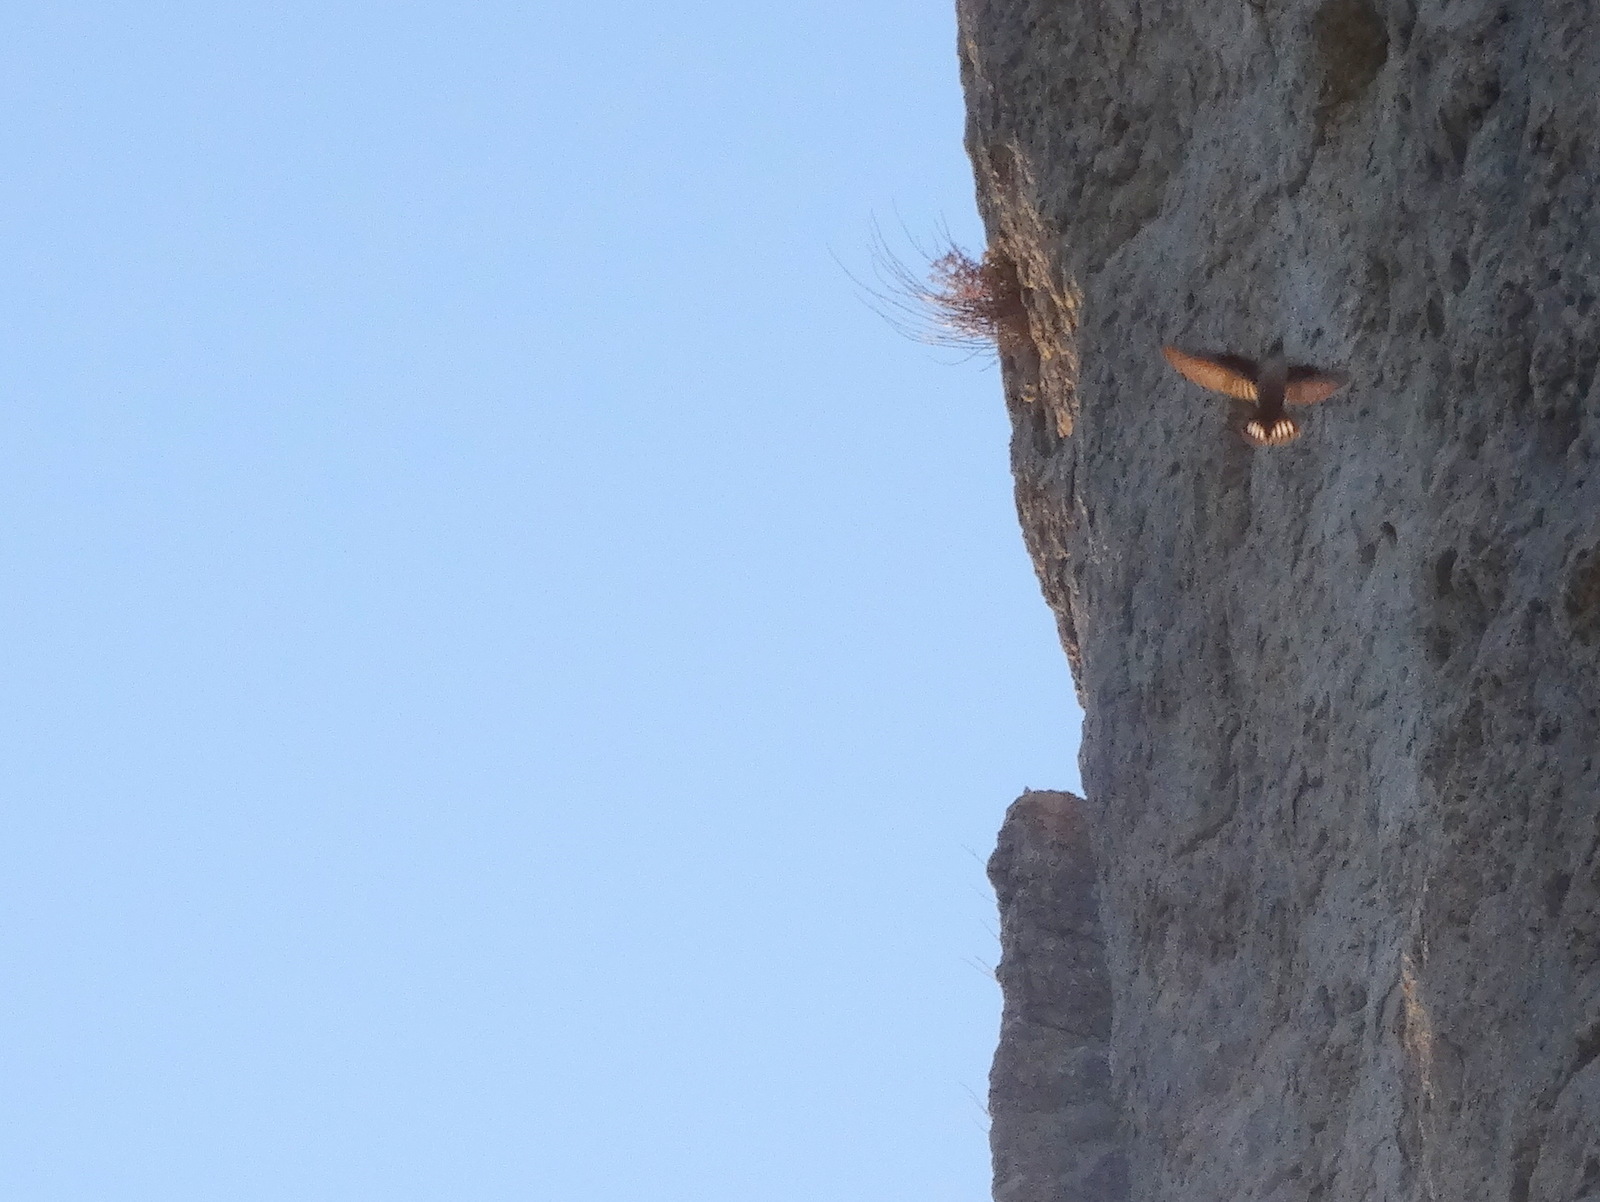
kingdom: Animalia
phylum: Chordata
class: Aves
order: Passeriformes
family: Hirundinidae
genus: Ptyonoprogne
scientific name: Ptyonoprogne rupestris
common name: Eurasian crag martin
